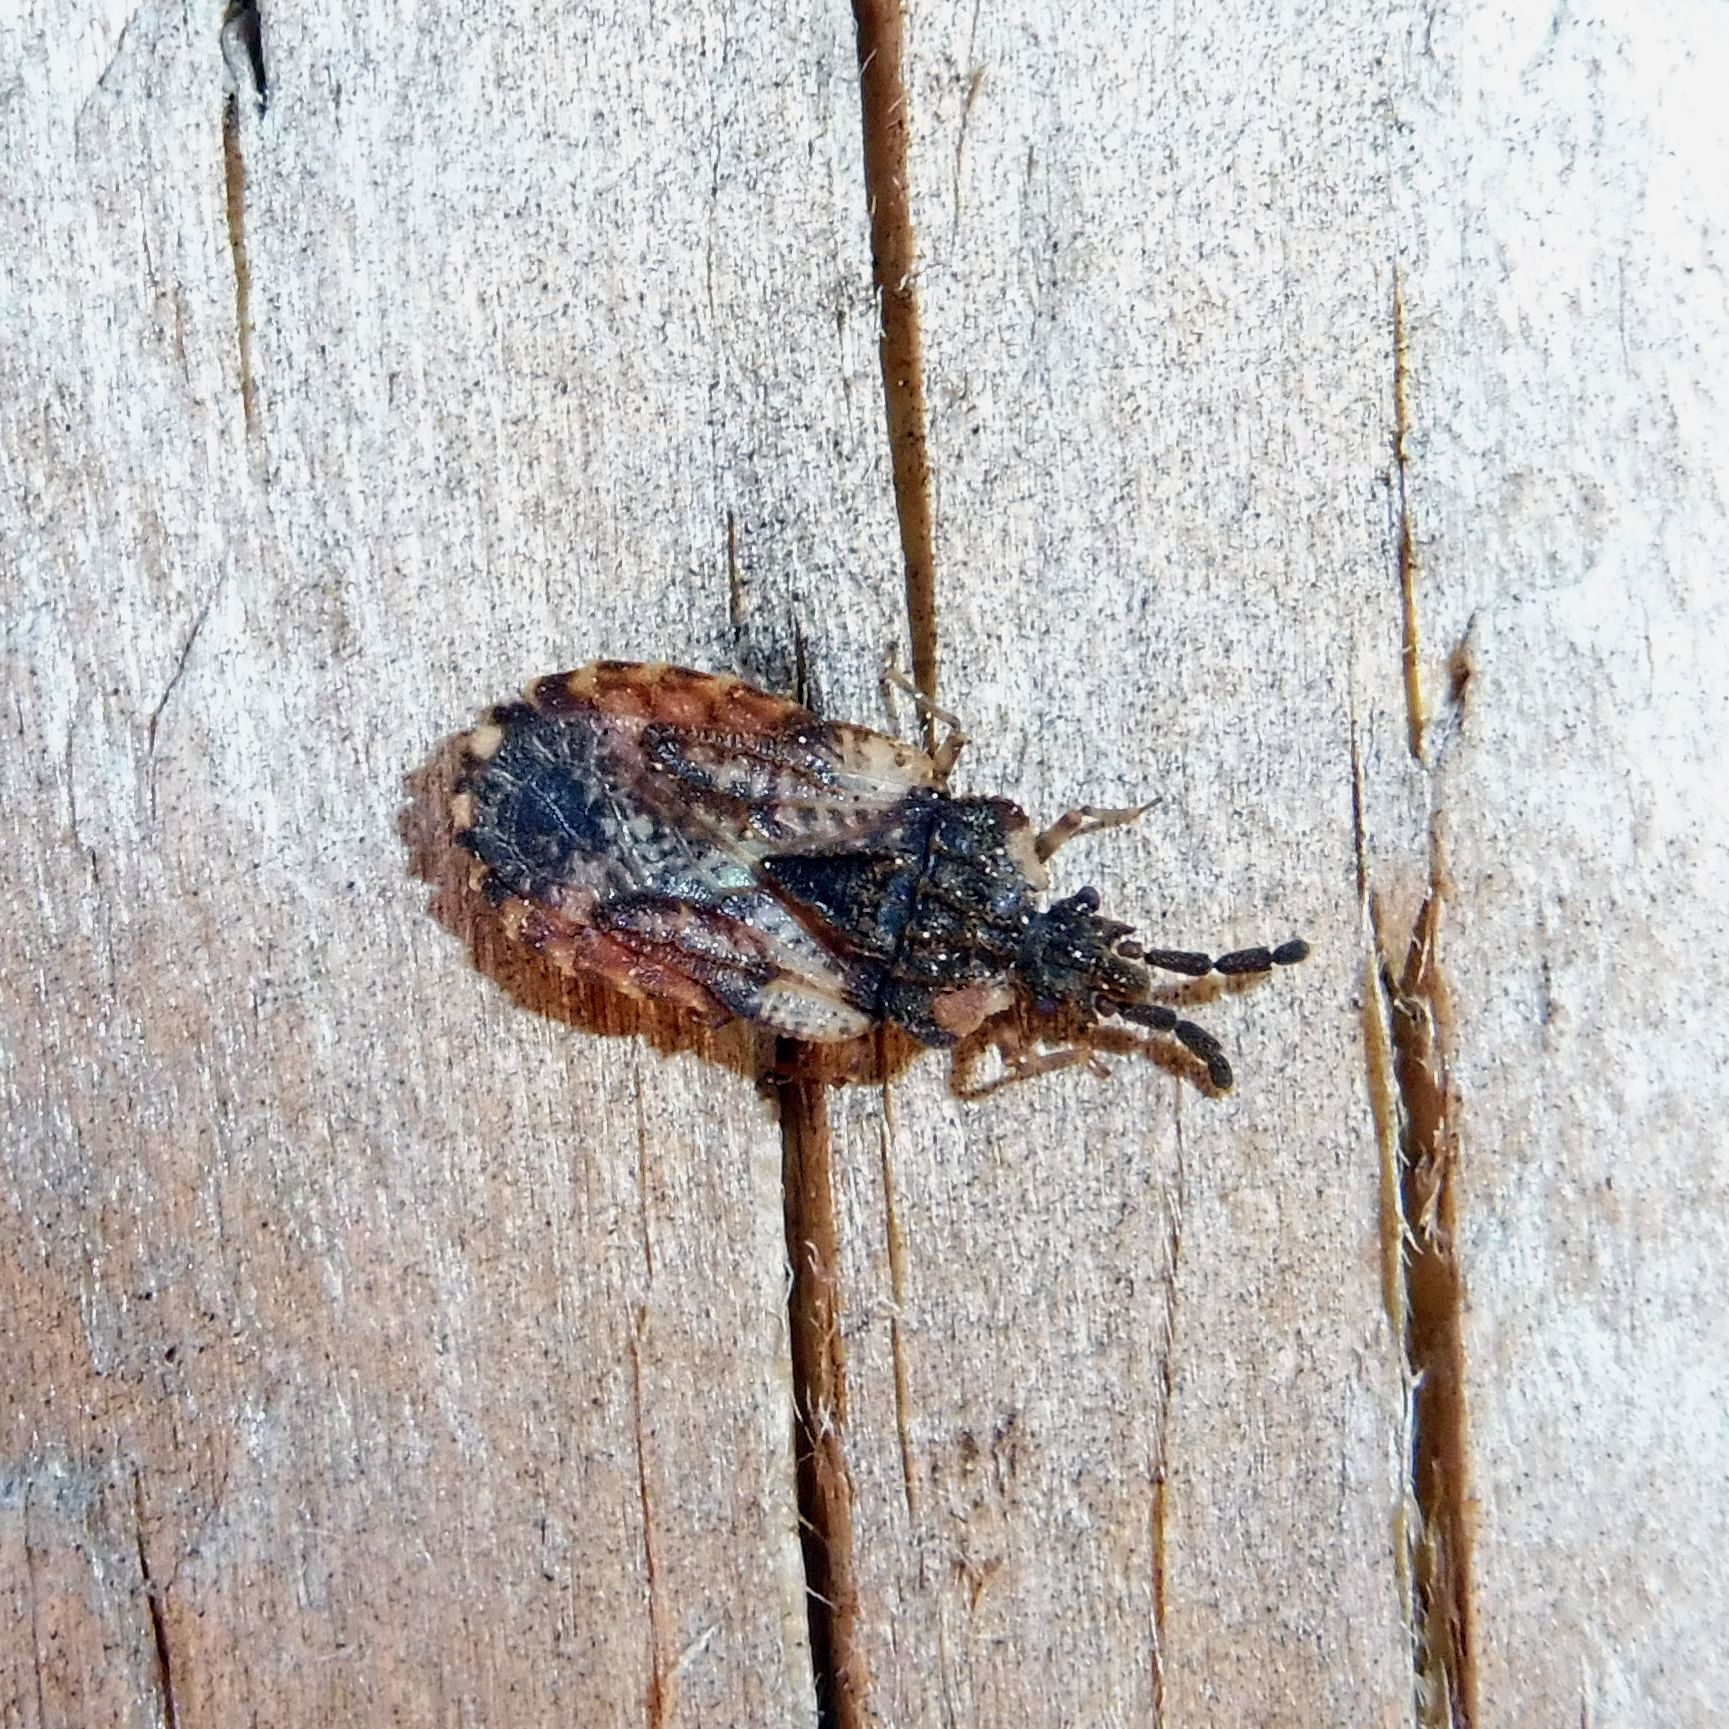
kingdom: Animalia
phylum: Arthropoda
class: Insecta
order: Hemiptera
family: Aradidae
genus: Aradus
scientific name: Aradus depressus
